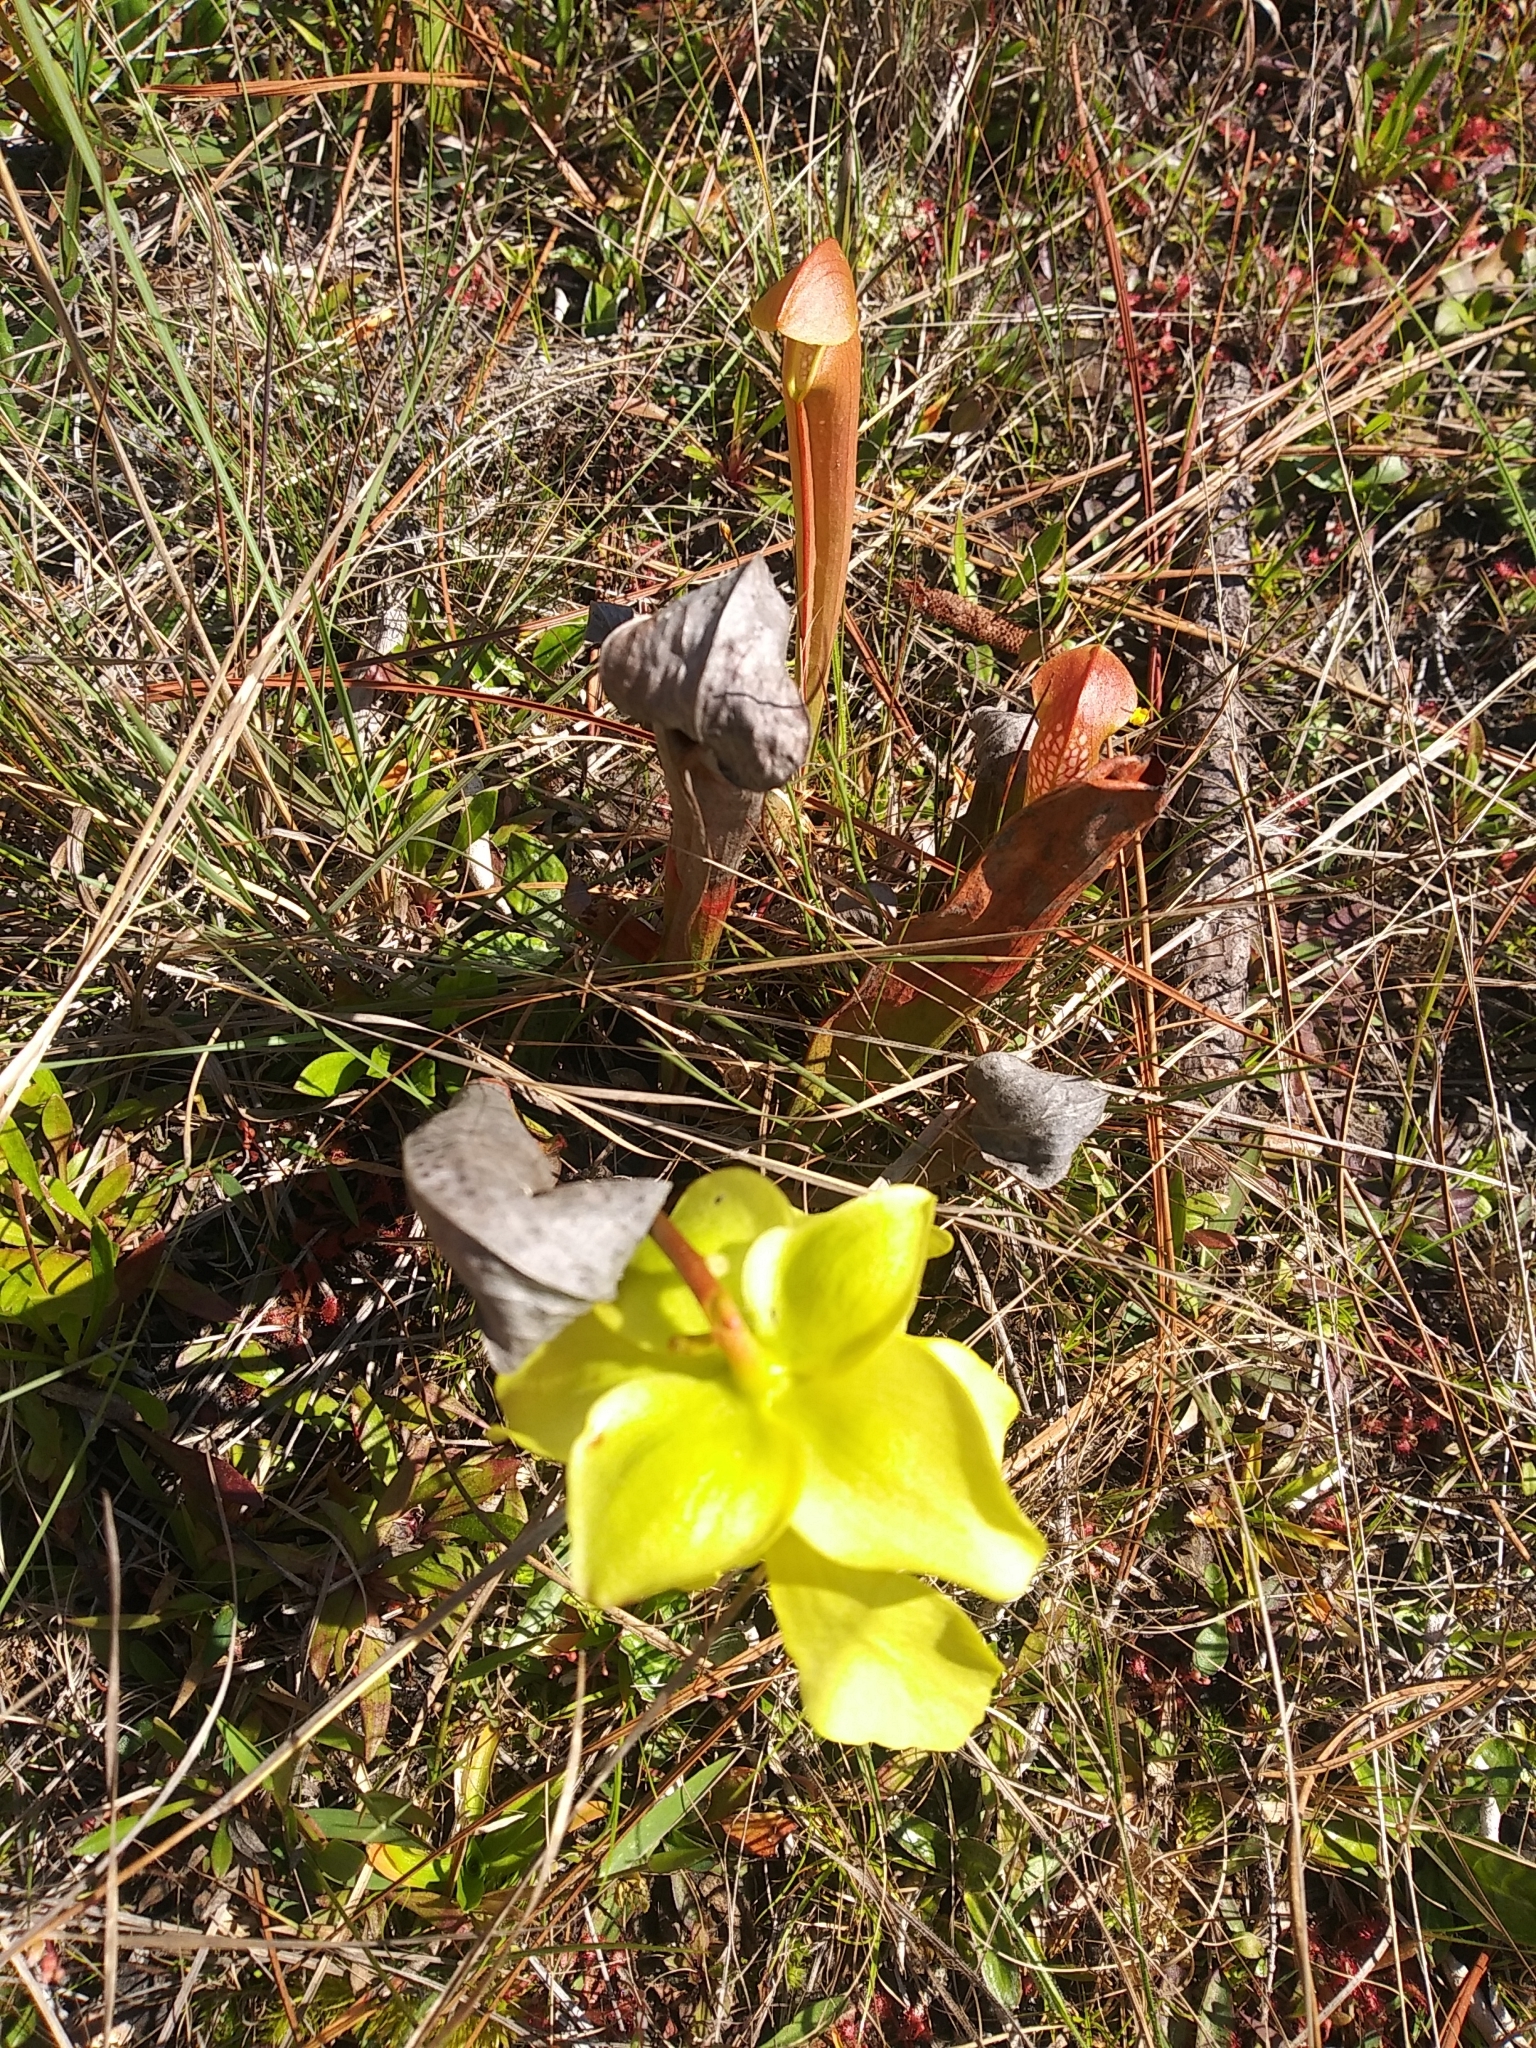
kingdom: Plantae
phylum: Tracheophyta
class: Magnoliopsida
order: Ericales
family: Sarraceniaceae
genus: Sarracenia
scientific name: Sarracenia minor
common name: Rainhat-trumpet
